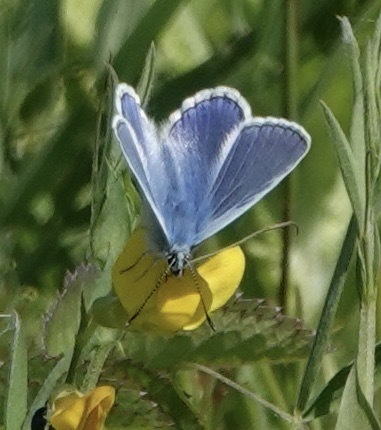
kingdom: Animalia
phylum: Arthropoda
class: Insecta
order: Lepidoptera
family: Lycaenidae
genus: Polyommatus
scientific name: Polyommatus icarus
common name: Common blue
